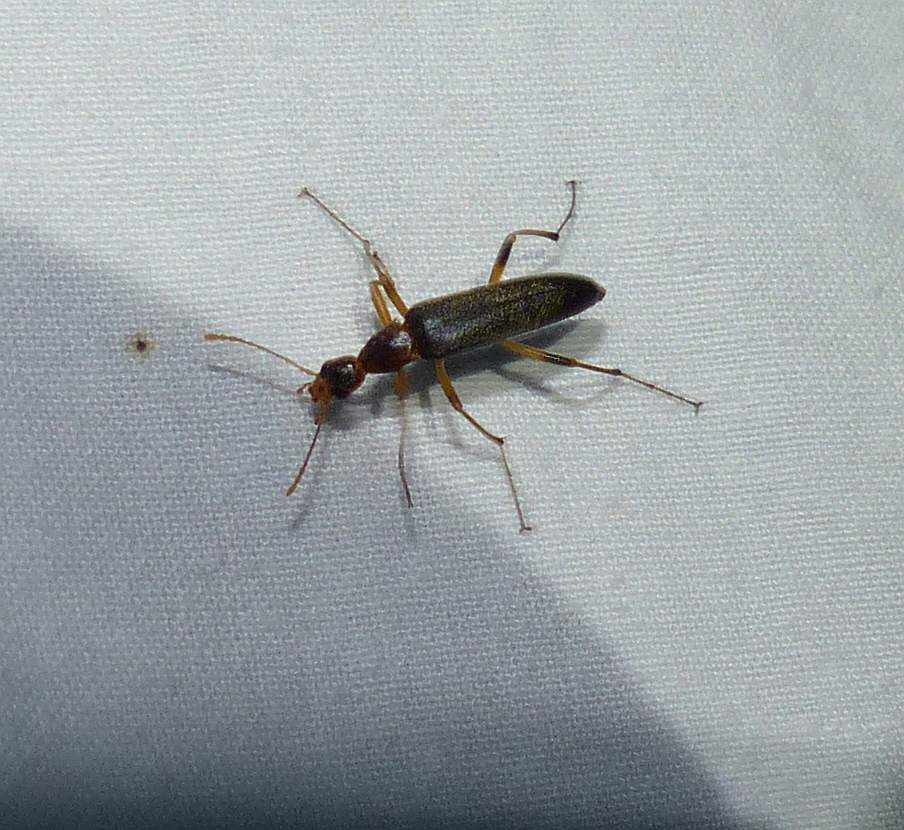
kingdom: Animalia
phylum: Arthropoda
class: Insecta
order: Coleoptera
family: Stenotrachelidae
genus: Cephaloon
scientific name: Cephaloon lepturides
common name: False leptura beetle
